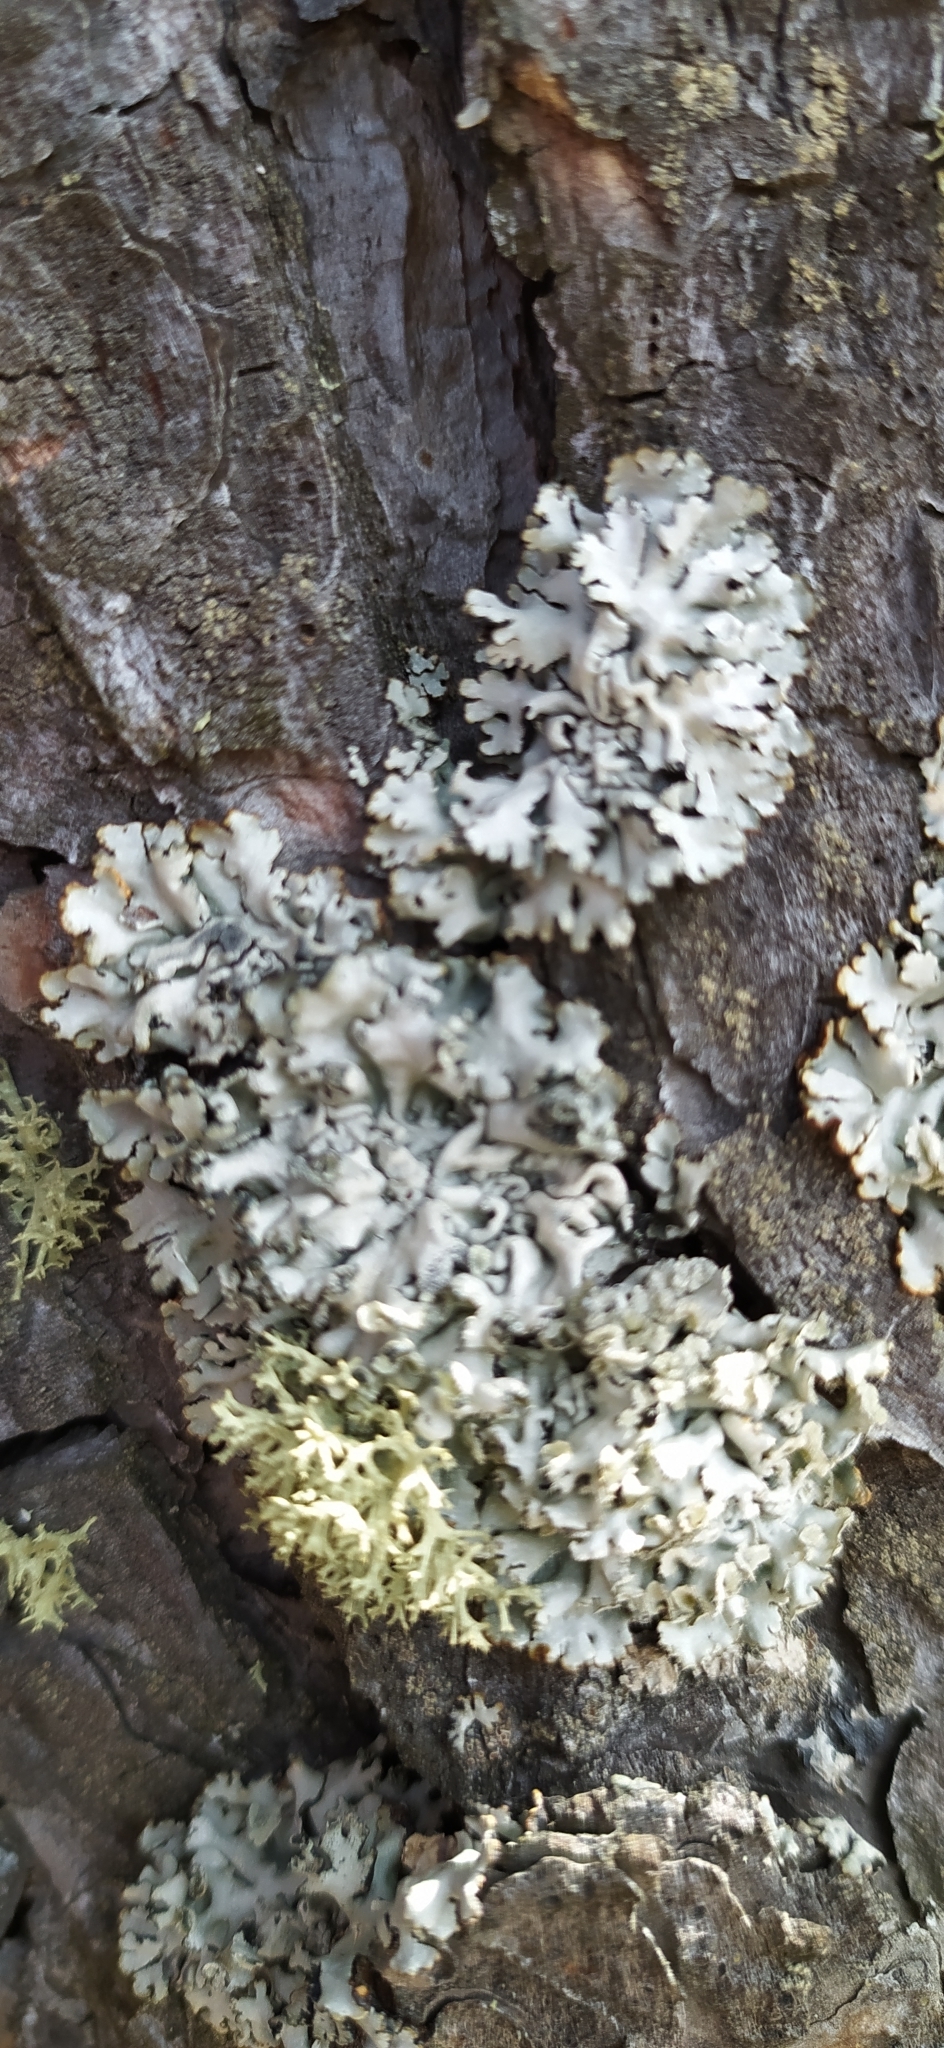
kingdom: Fungi
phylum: Ascomycota
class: Lecanoromycetes
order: Lecanorales
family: Parmeliaceae
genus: Hypogymnia
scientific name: Hypogymnia physodes
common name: Dark crottle
